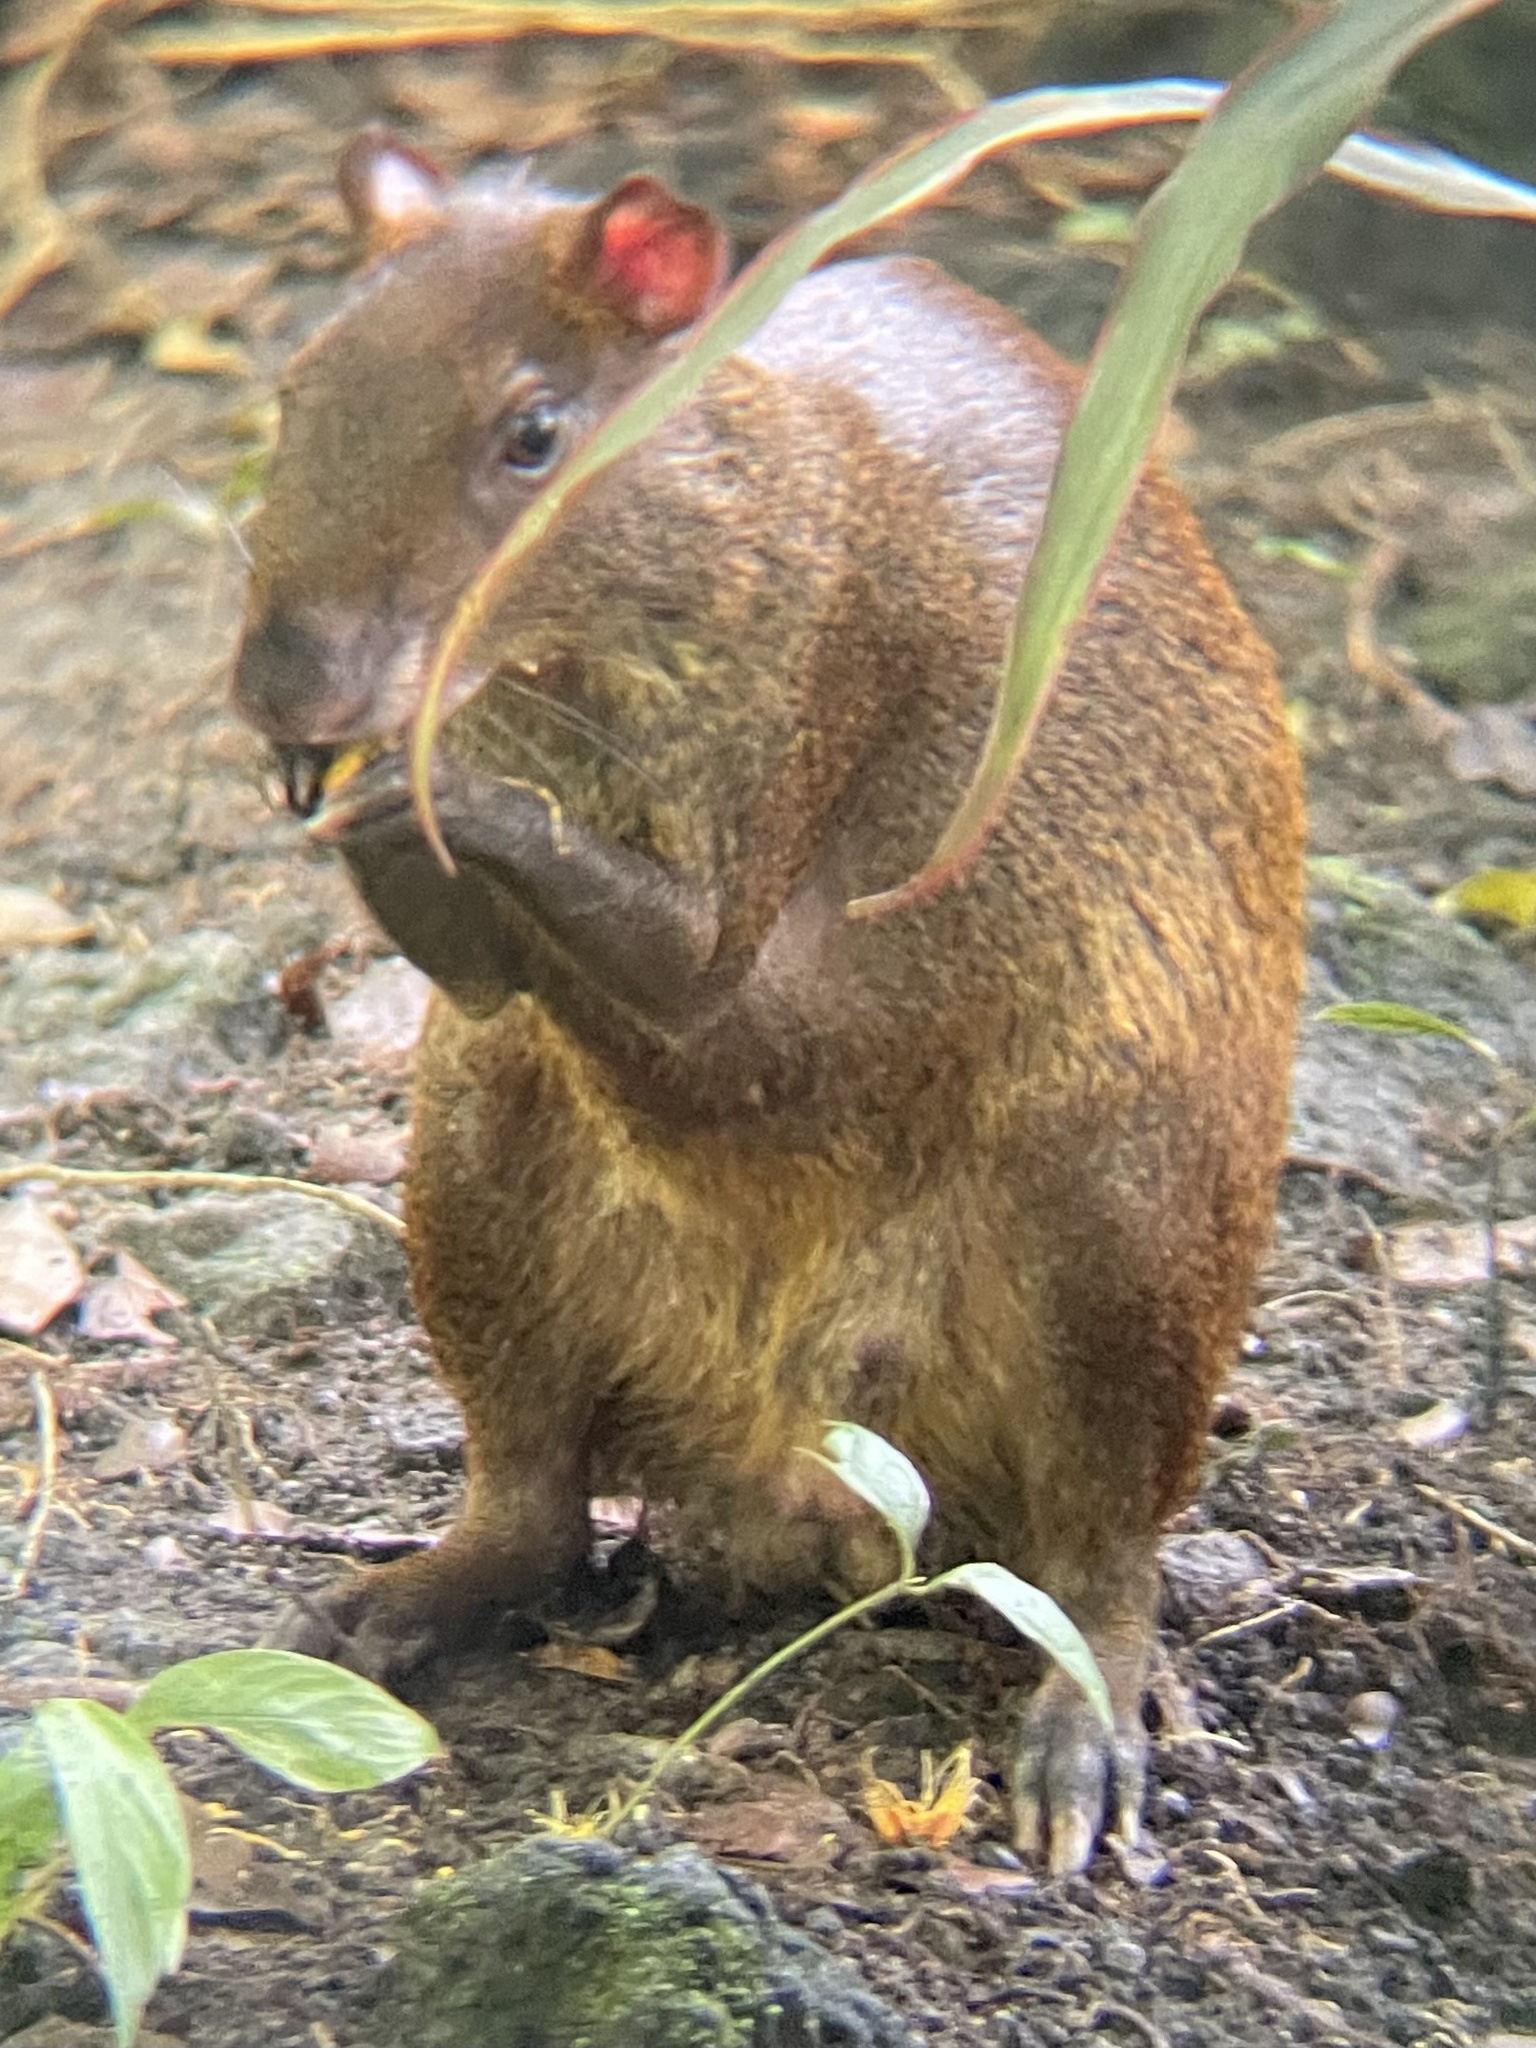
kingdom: Animalia
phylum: Chordata
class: Mammalia
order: Rodentia
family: Dasyproctidae
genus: Dasyprocta
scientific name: Dasyprocta punctata
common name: Central american agouti
